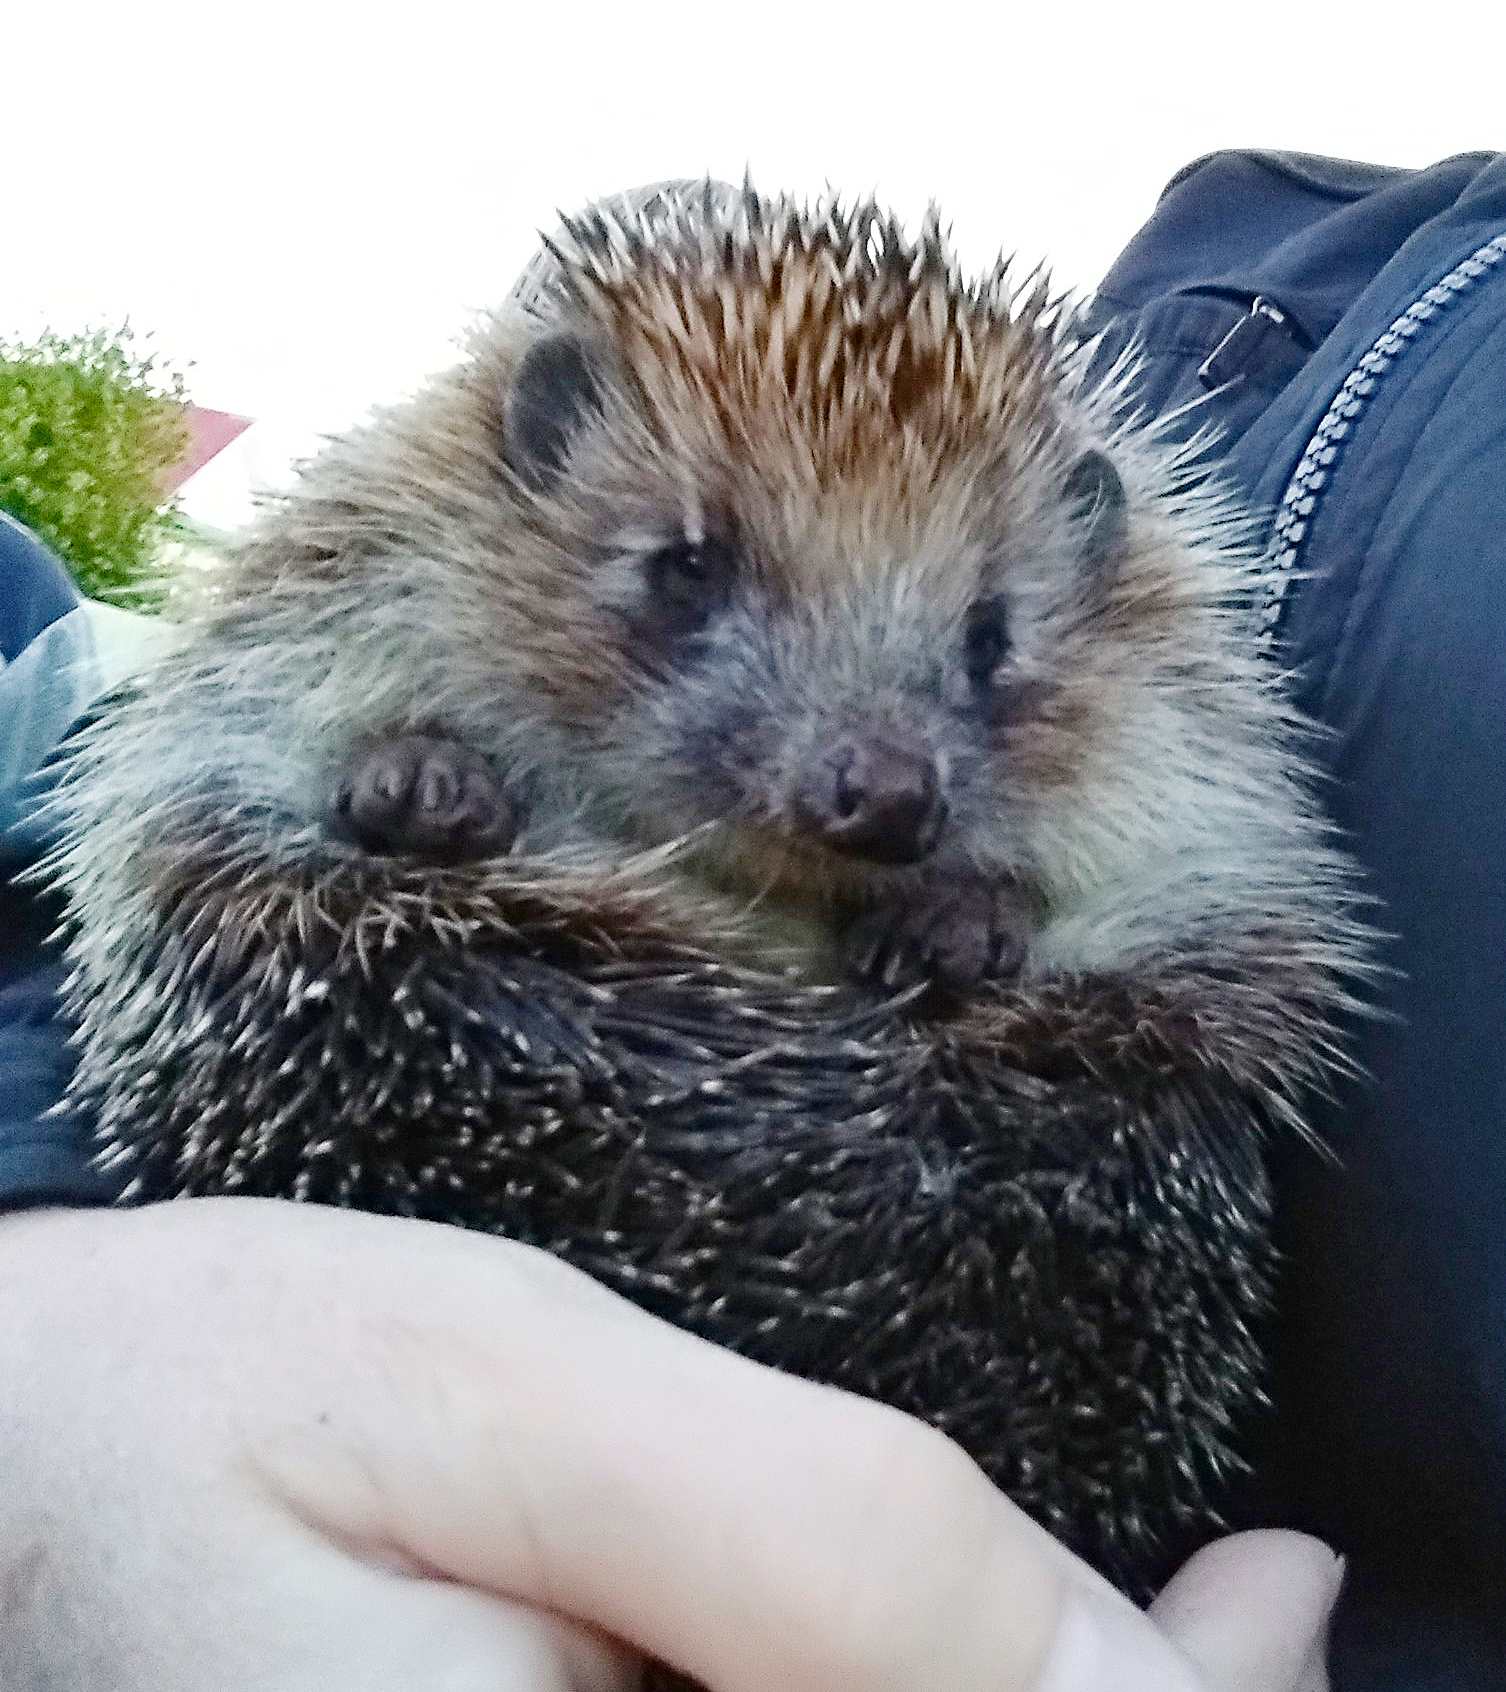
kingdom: Animalia
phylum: Chordata
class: Mammalia
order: Erinaceomorpha
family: Erinaceidae
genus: Erinaceus
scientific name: Erinaceus roumanicus
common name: Northern white-breasted hedgehog
